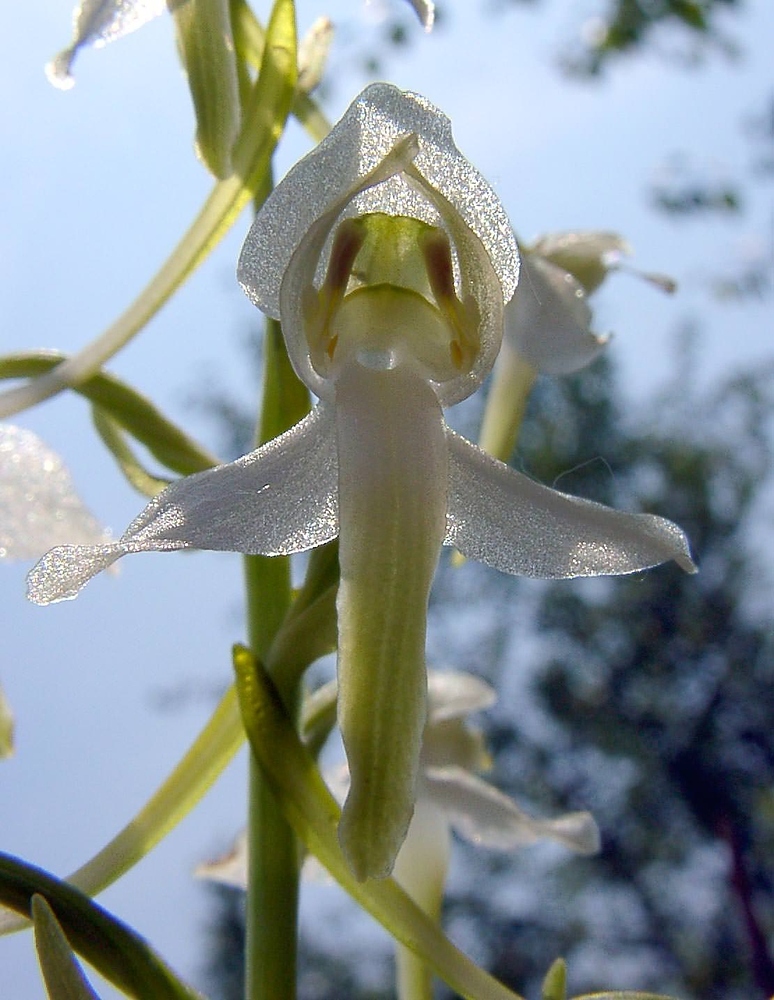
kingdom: Plantae
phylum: Tracheophyta
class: Liliopsida
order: Asparagales
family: Orchidaceae
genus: Platanthera
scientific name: Platanthera chlorantha
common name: Greater butterfly-orchid
